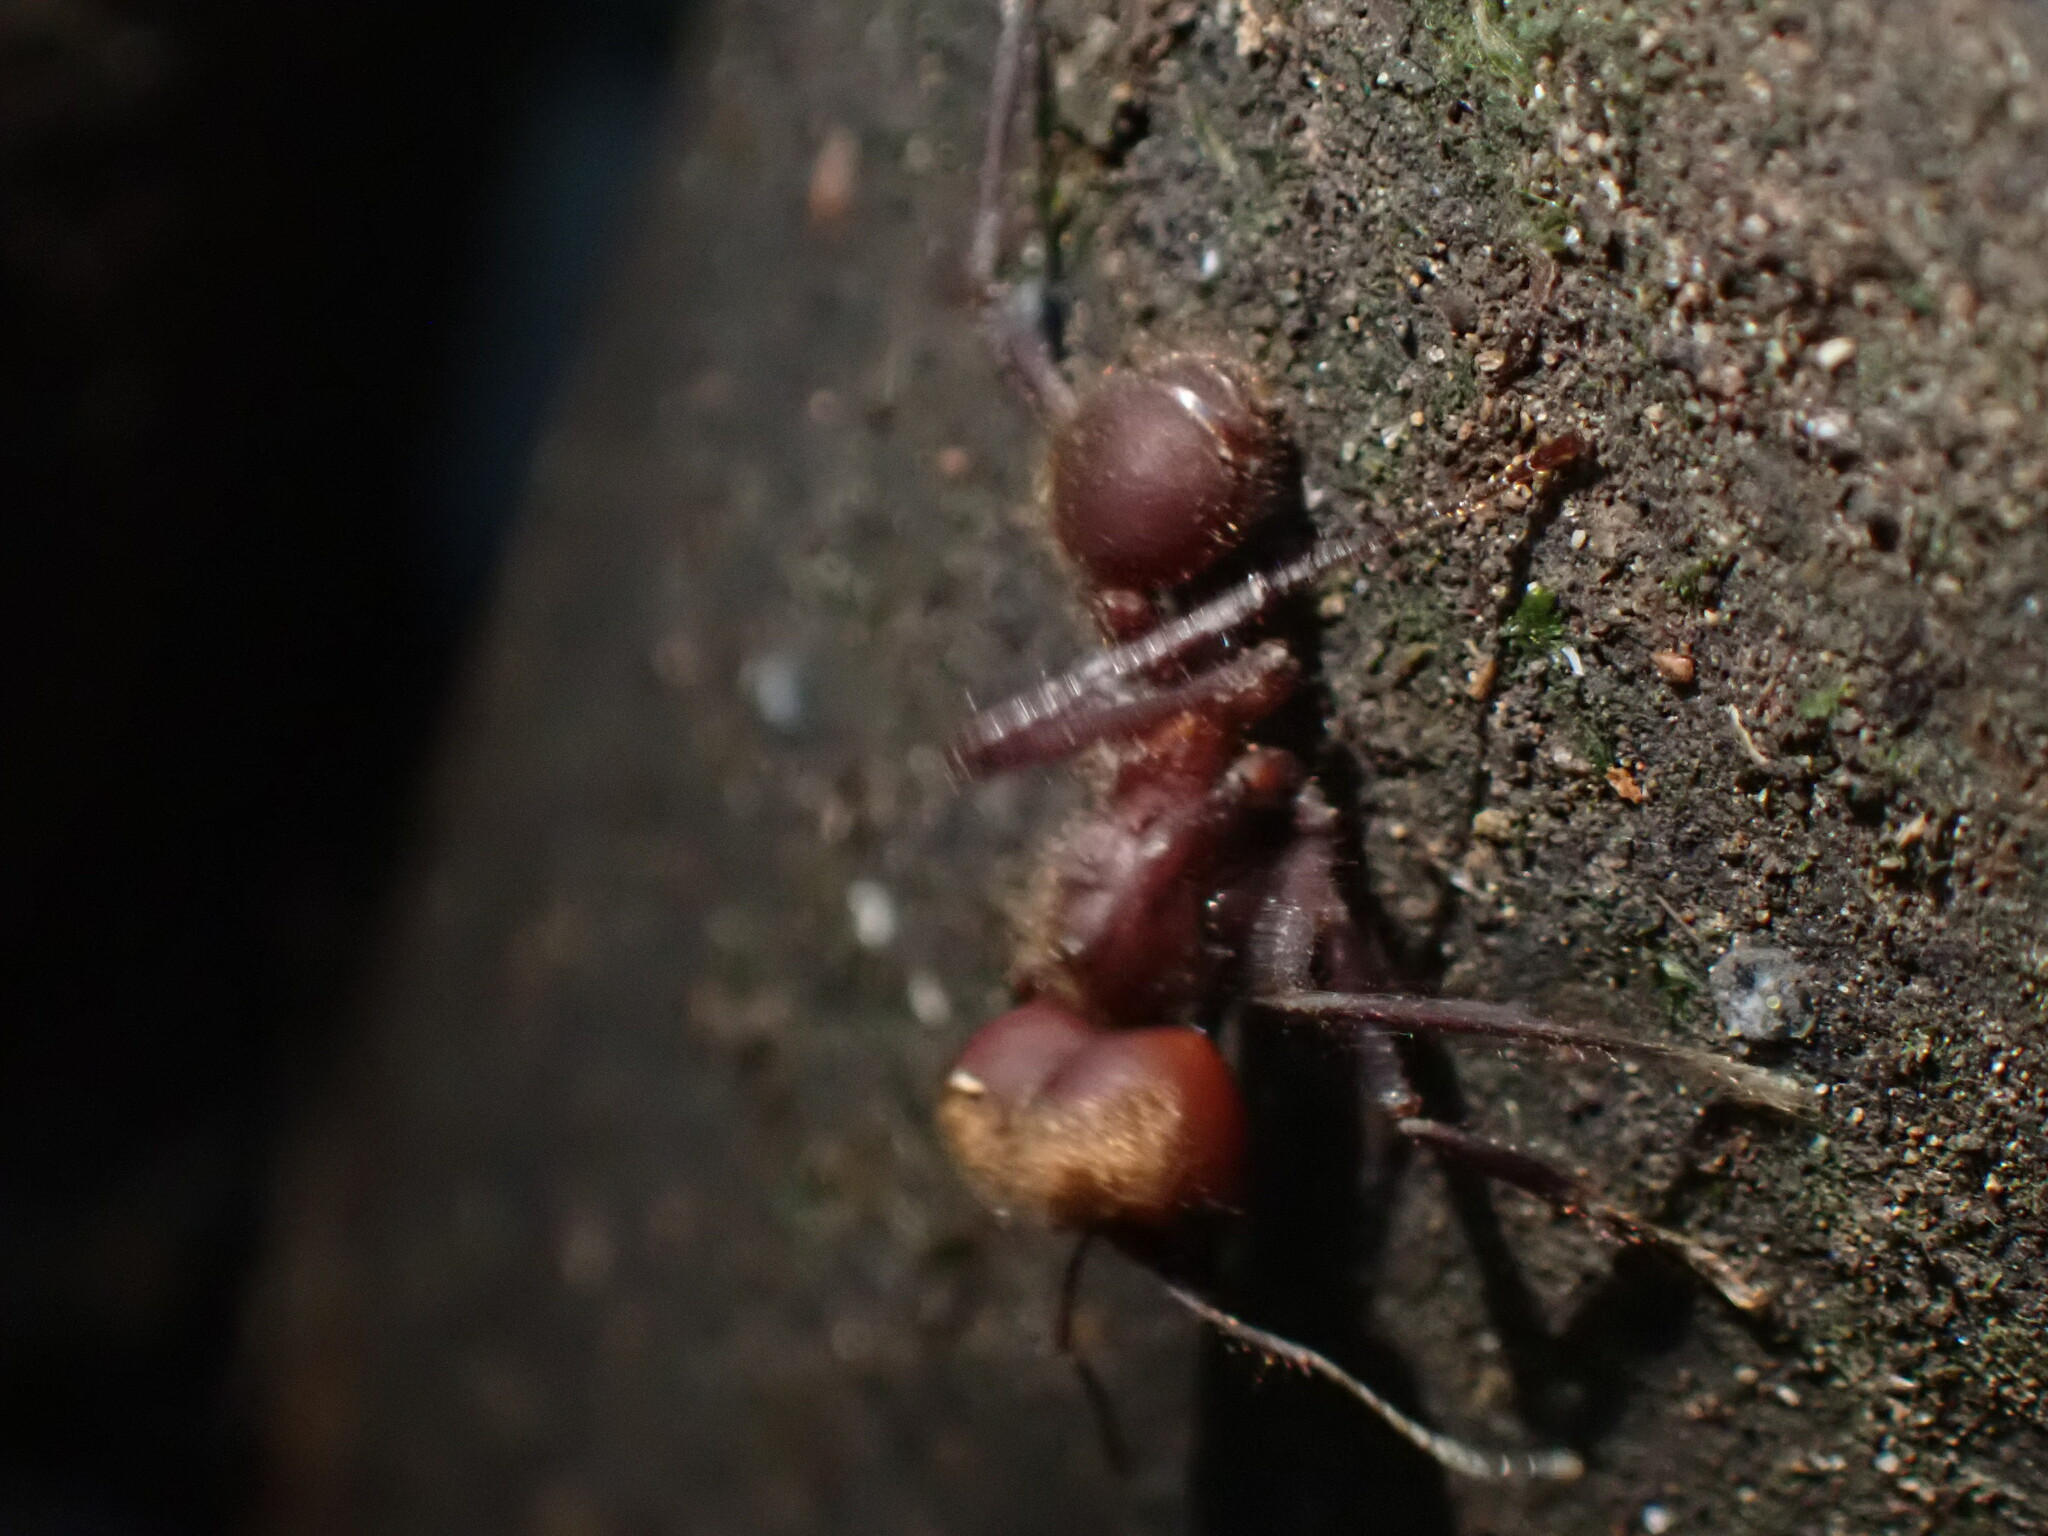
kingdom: Animalia
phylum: Arthropoda
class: Insecta
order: Hymenoptera
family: Formicidae
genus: Atta
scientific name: Atta cephalotes
